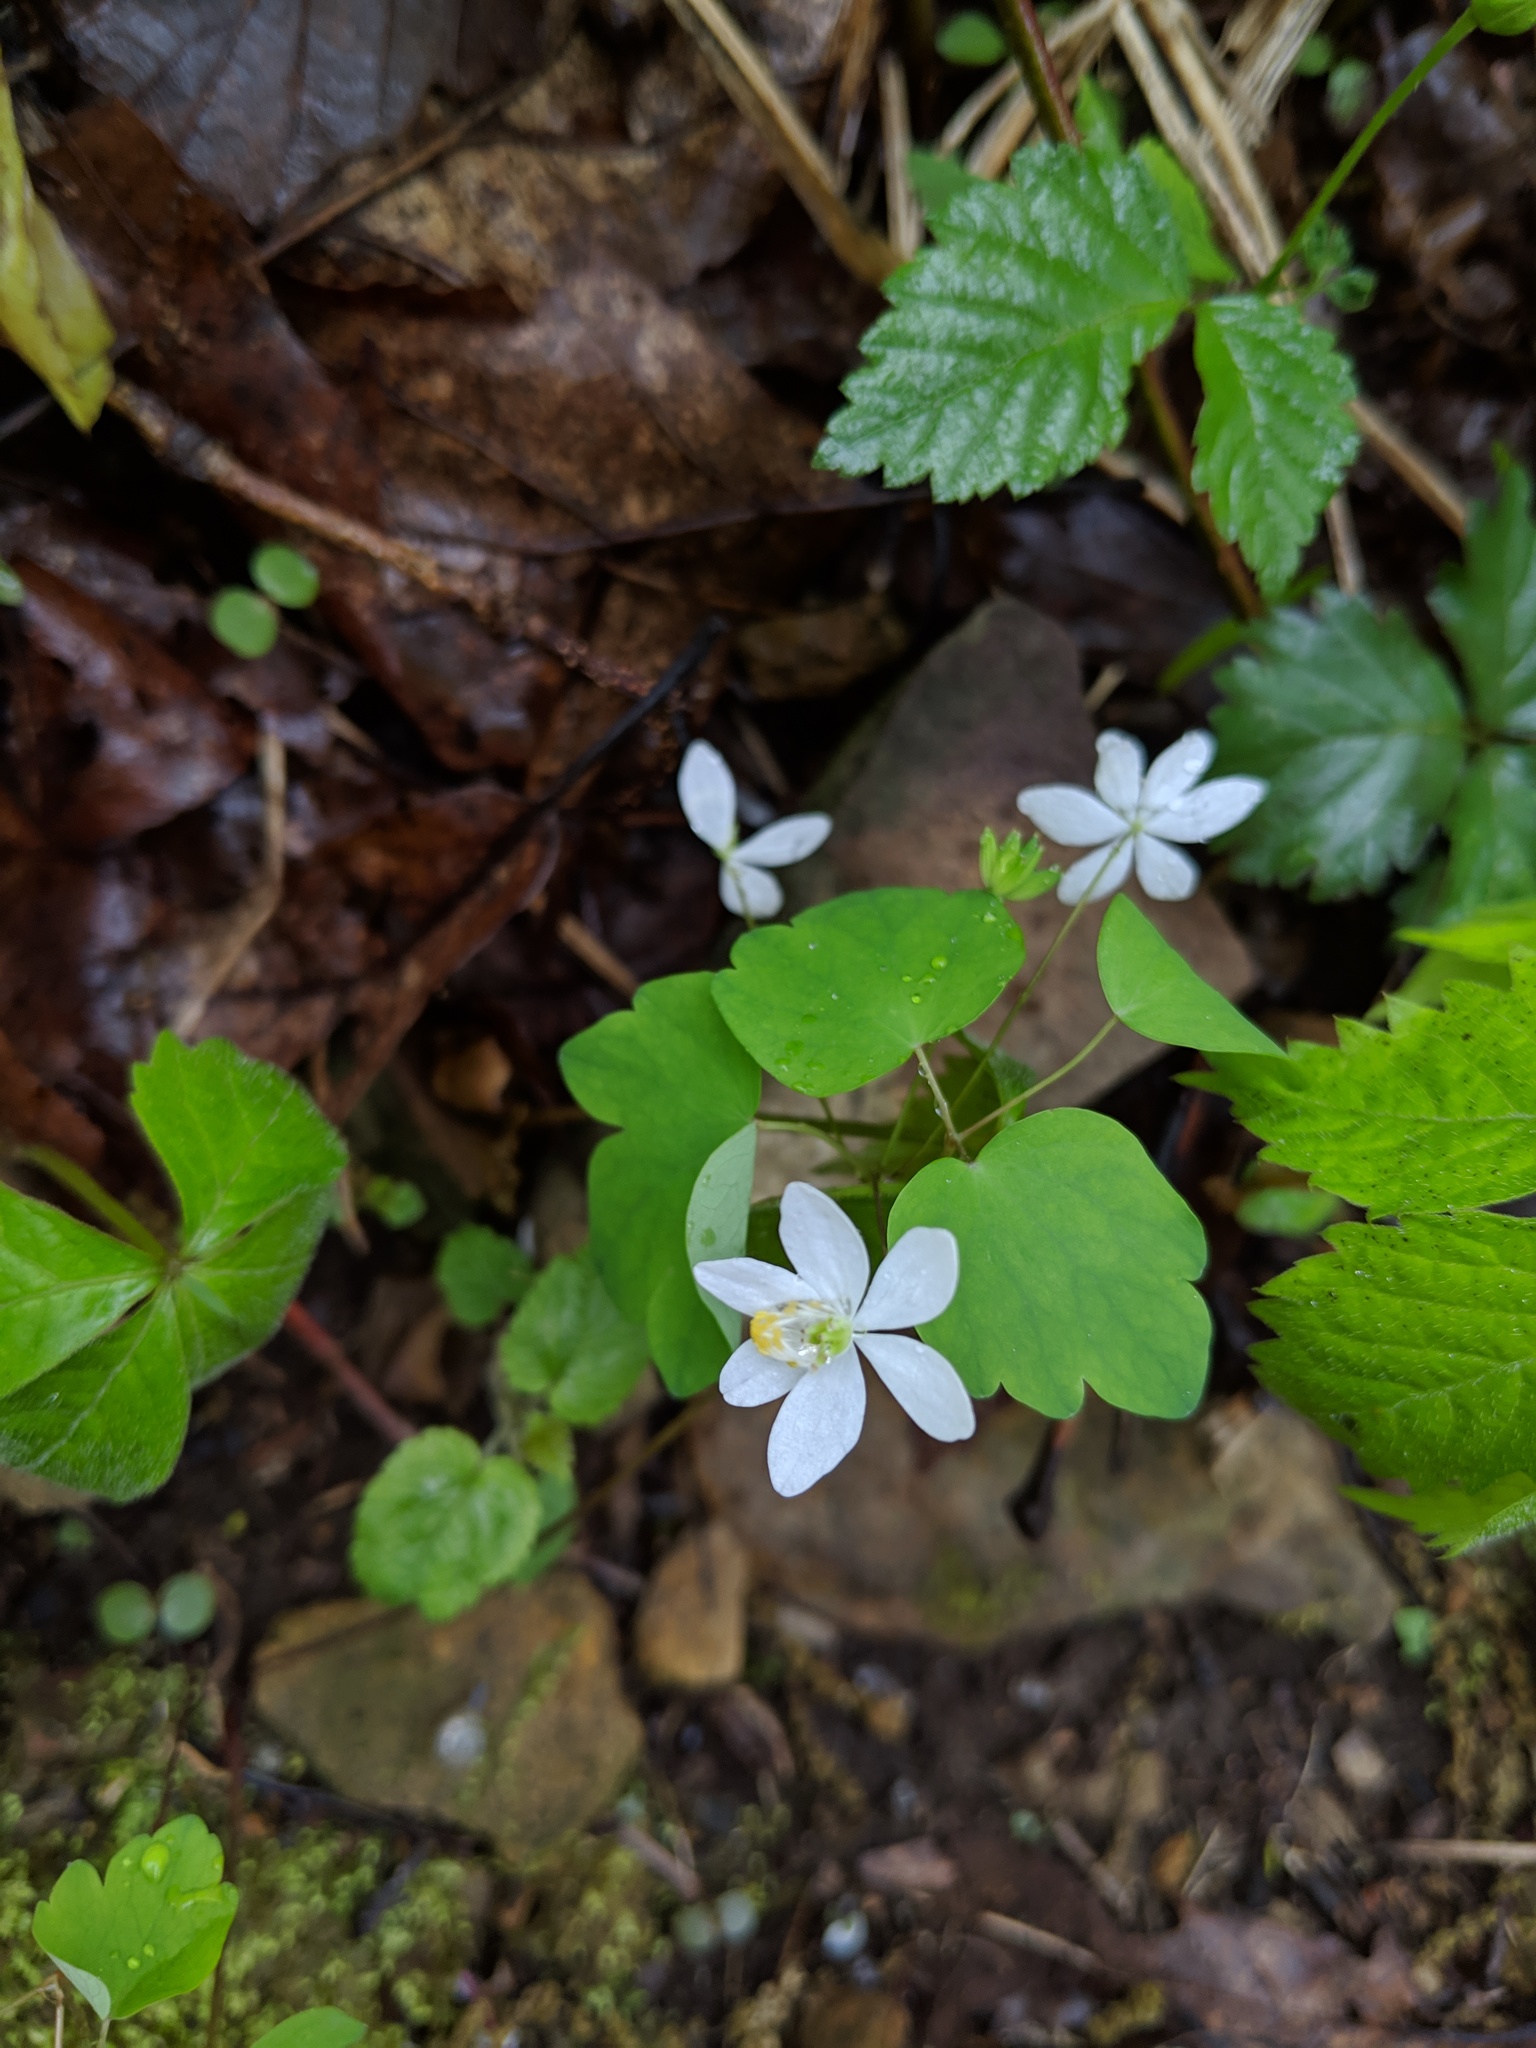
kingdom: Plantae
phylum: Tracheophyta
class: Magnoliopsida
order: Ranunculales
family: Ranunculaceae
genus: Thalictrum
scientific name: Thalictrum thalictroides
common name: Rue-anemone
